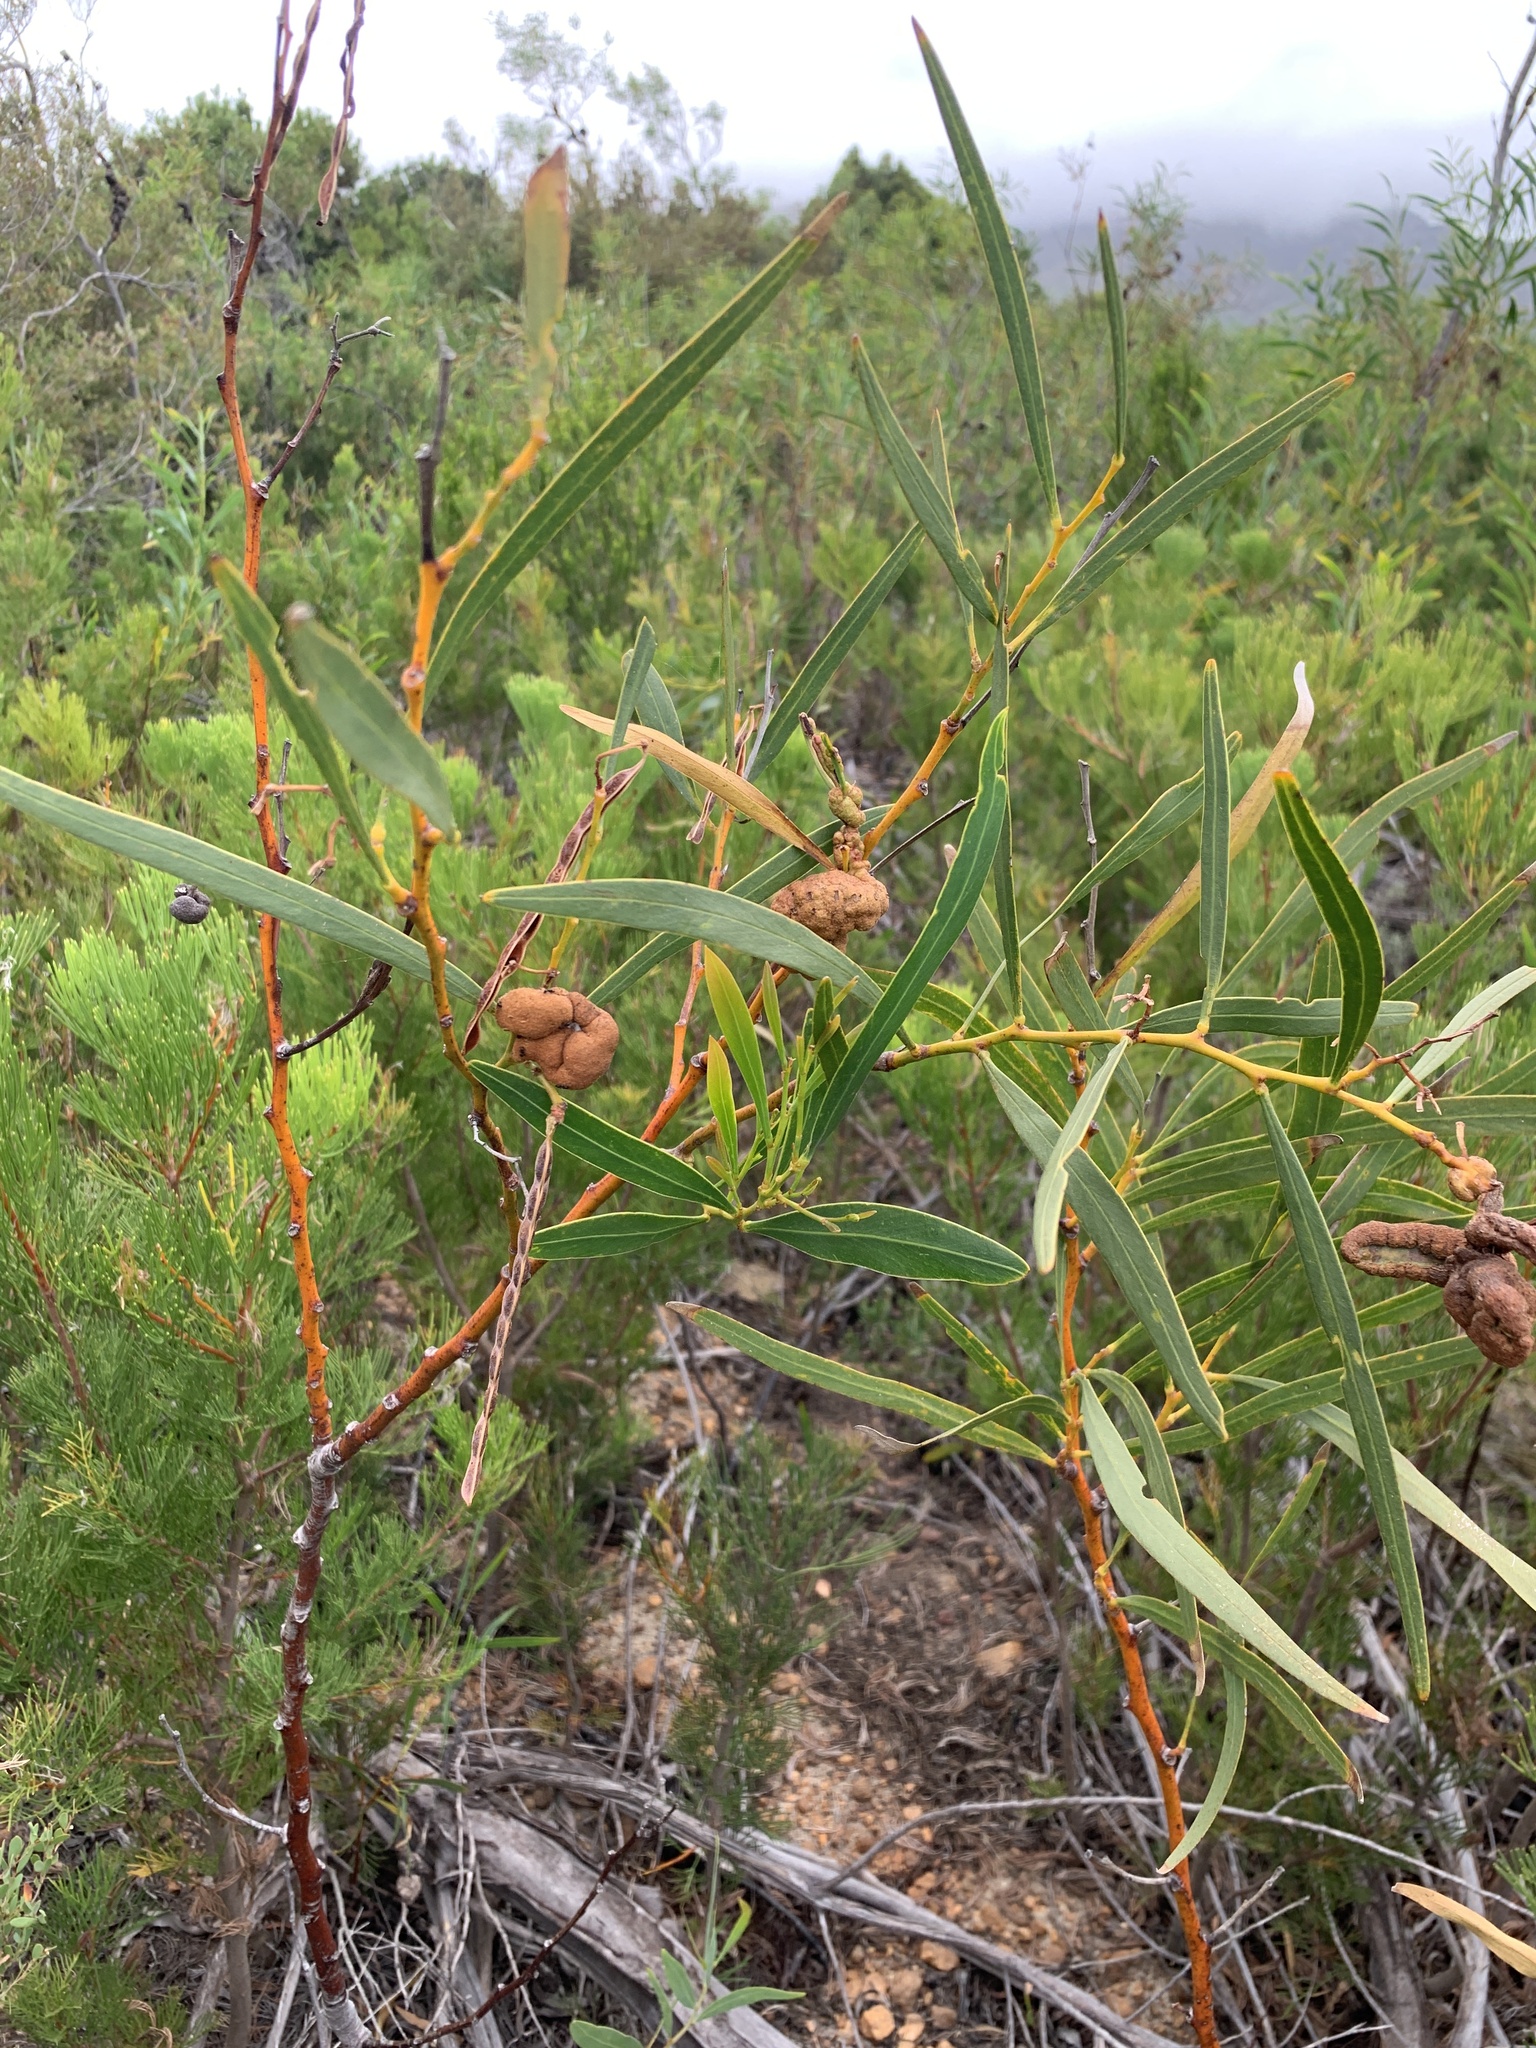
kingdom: Plantae
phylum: Tracheophyta
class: Magnoliopsida
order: Fabales
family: Fabaceae
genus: Acacia
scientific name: Acacia saligna
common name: Orange wattle
